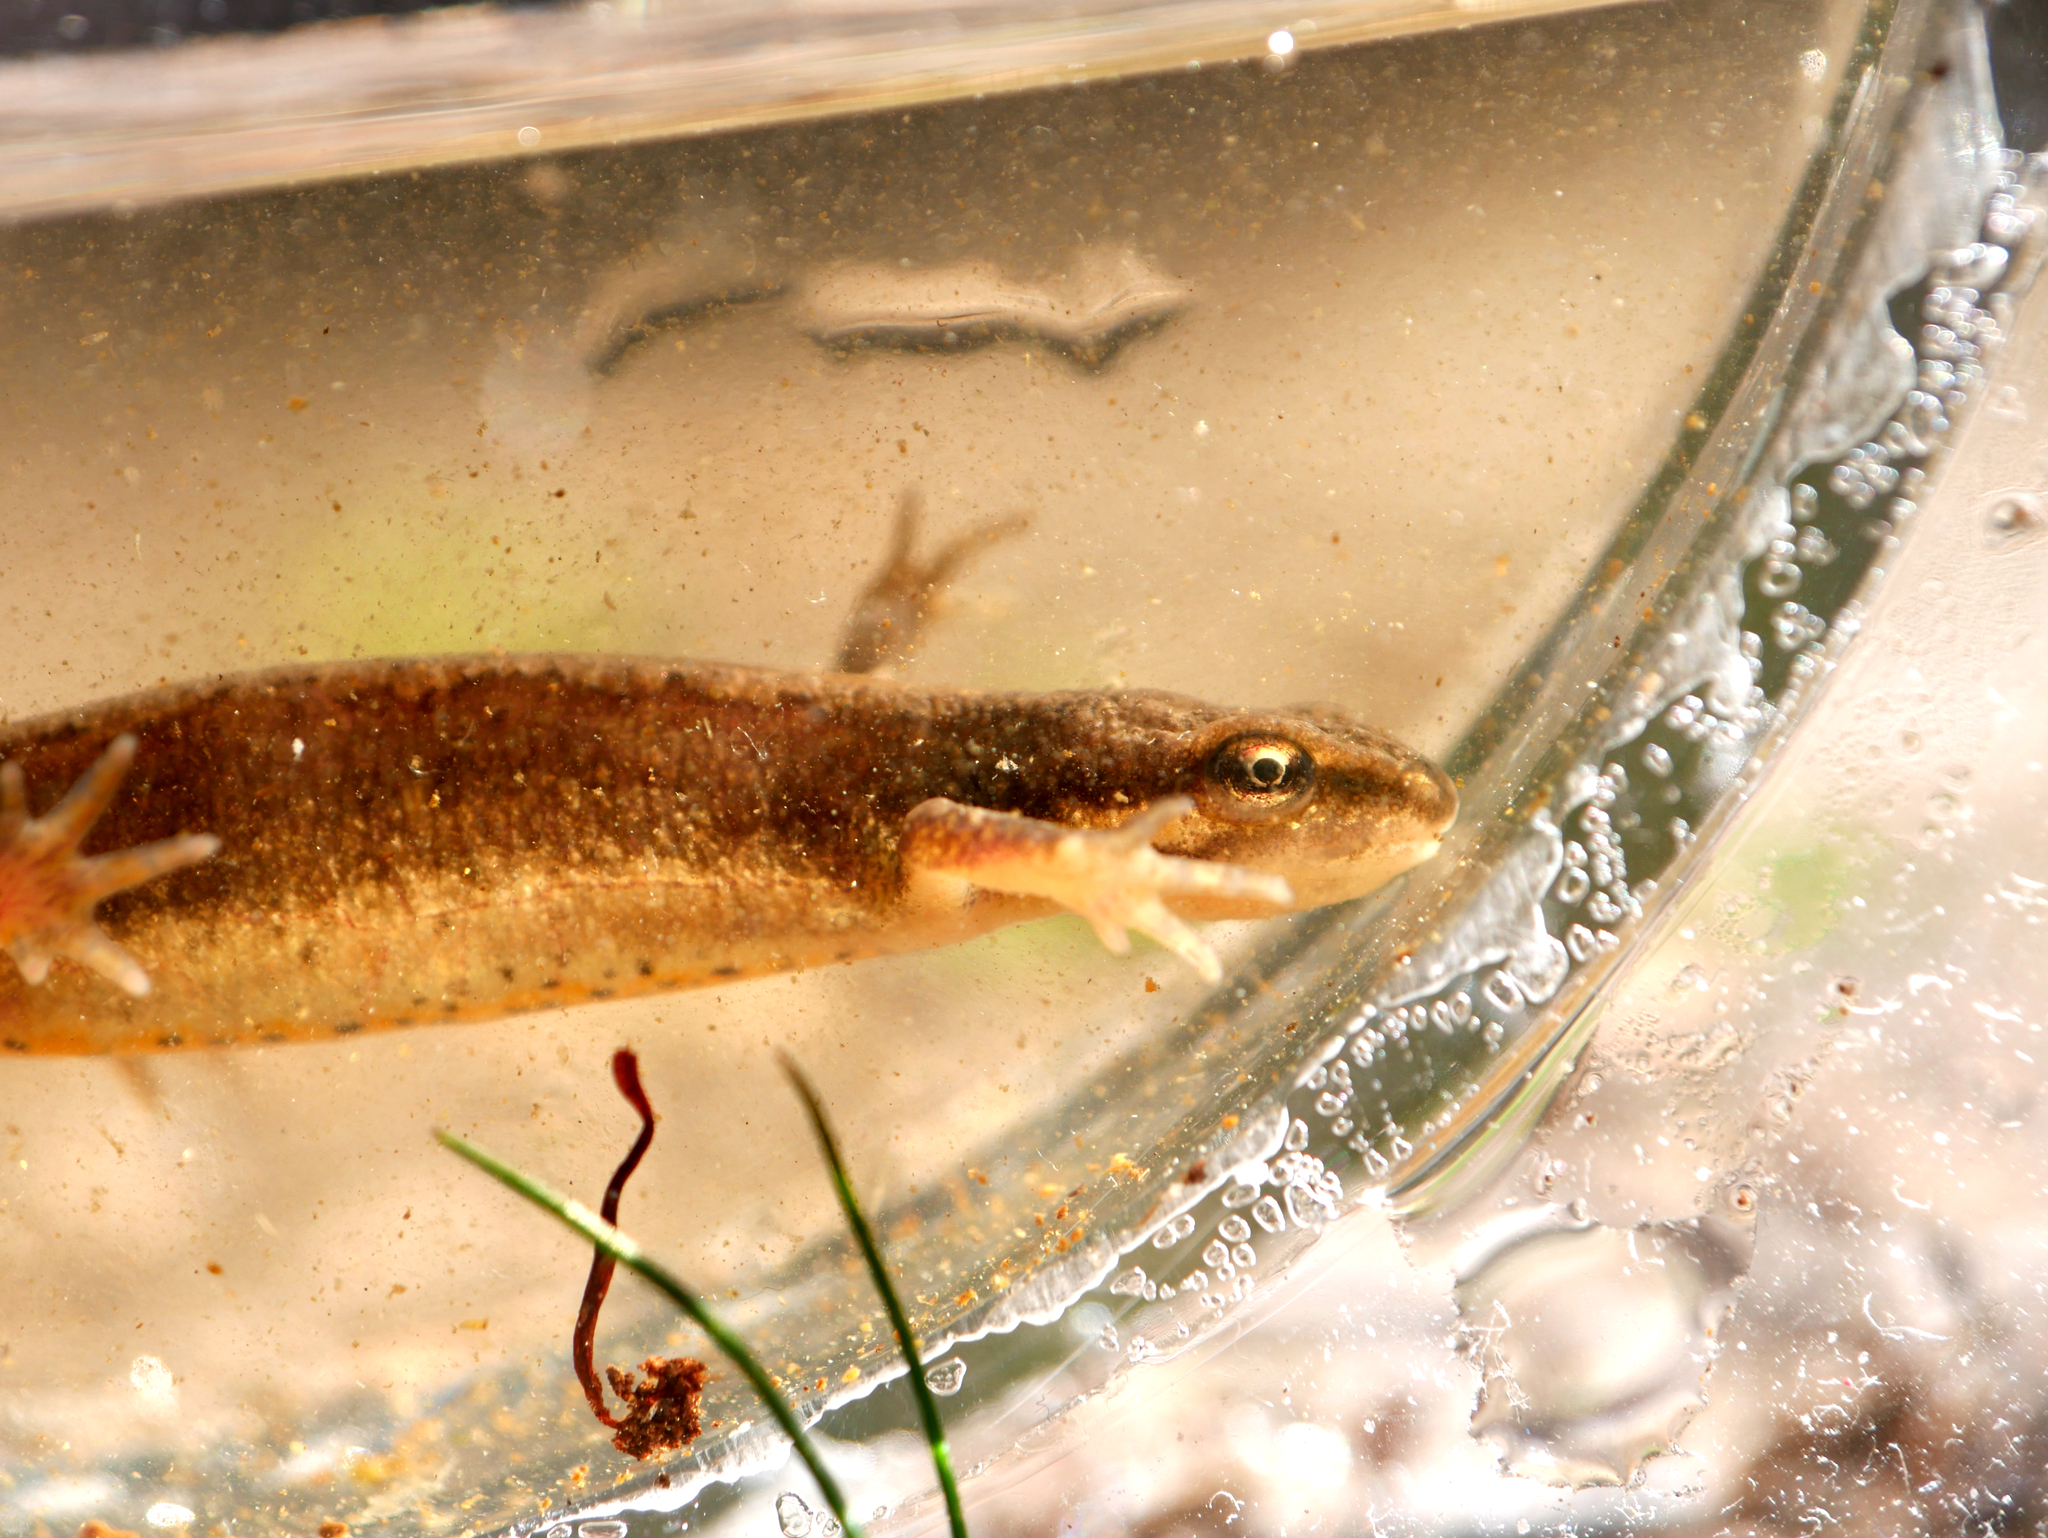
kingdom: Animalia
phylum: Chordata
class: Amphibia
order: Caudata
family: Salamandridae
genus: Lissotriton
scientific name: Lissotriton vulgaris
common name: Smooth newt
